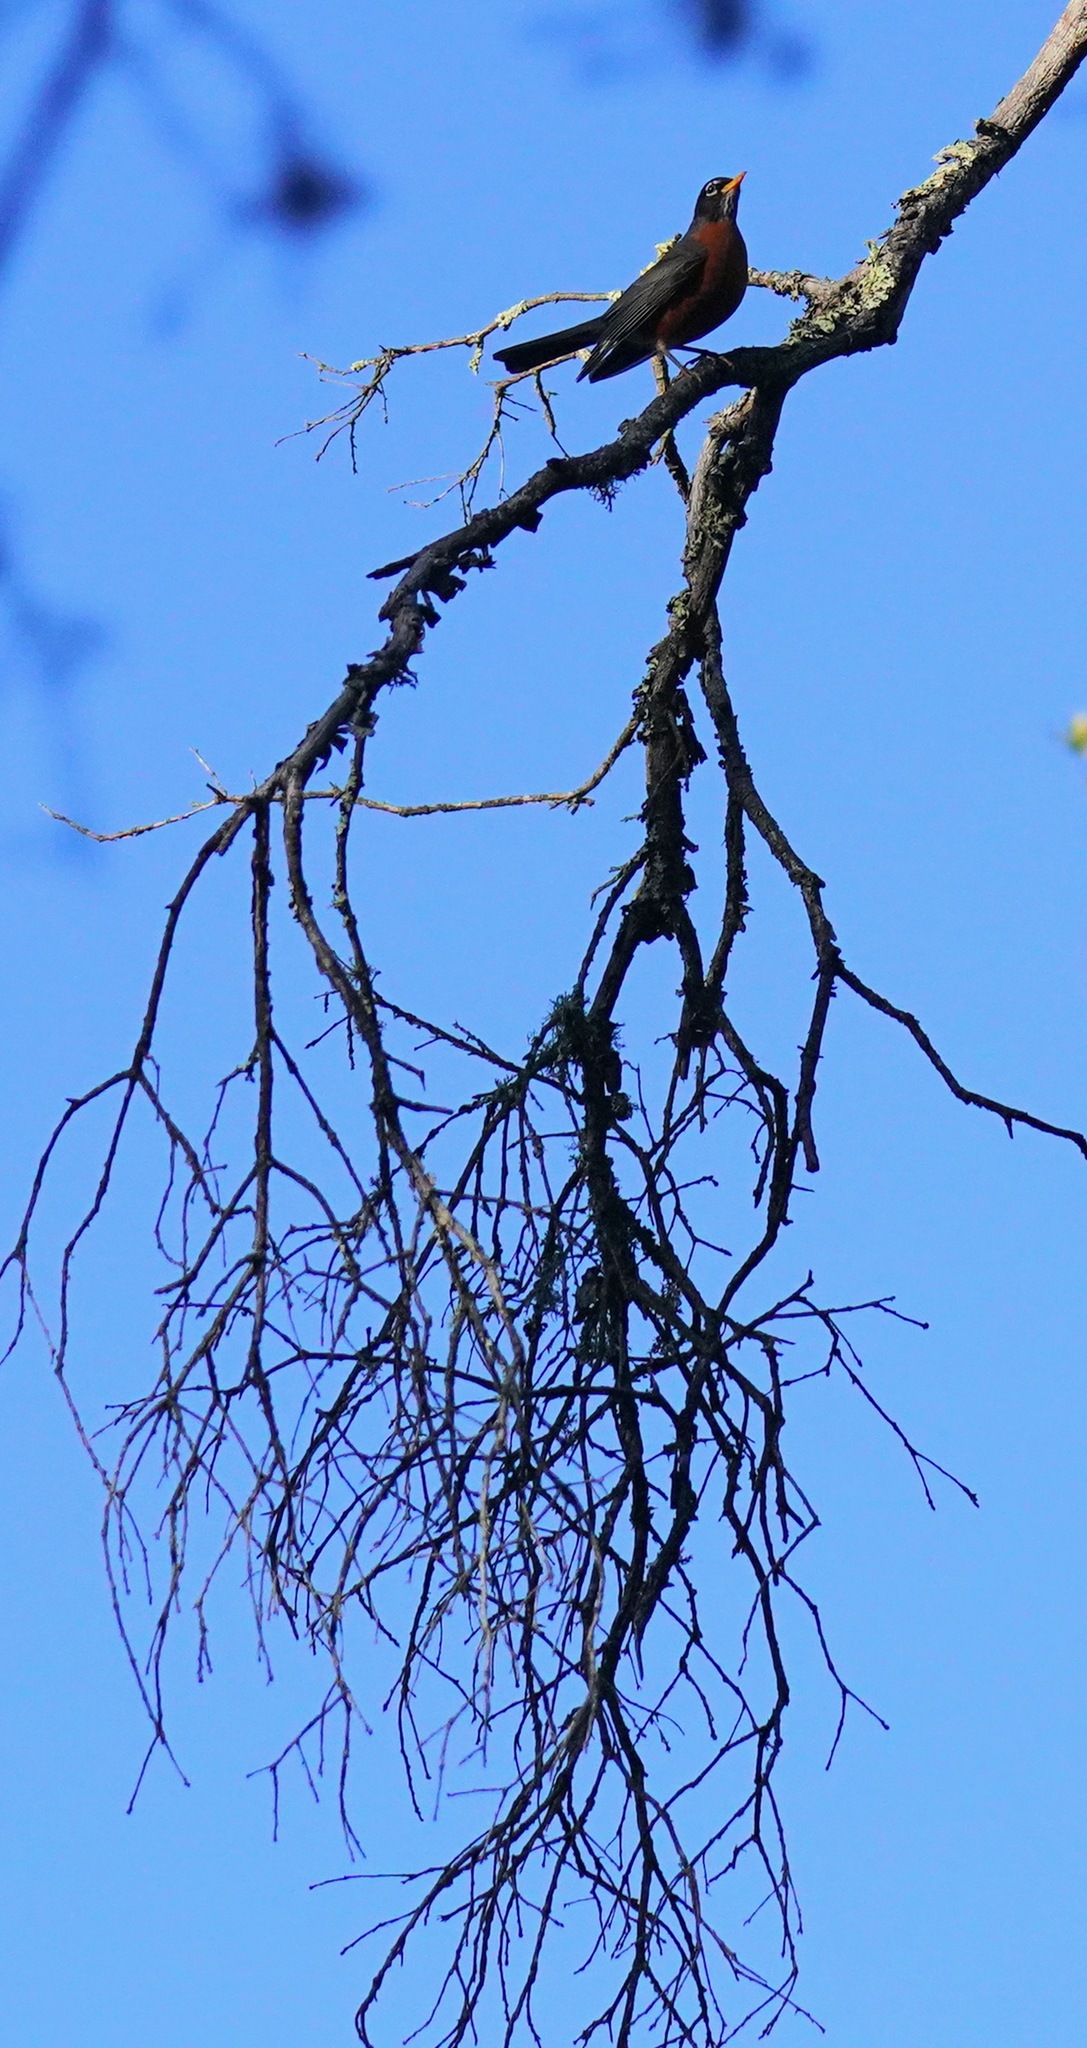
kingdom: Animalia
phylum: Chordata
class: Aves
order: Passeriformes
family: Turdidae
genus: Turdus
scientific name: Turdus migratorius
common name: American robin
